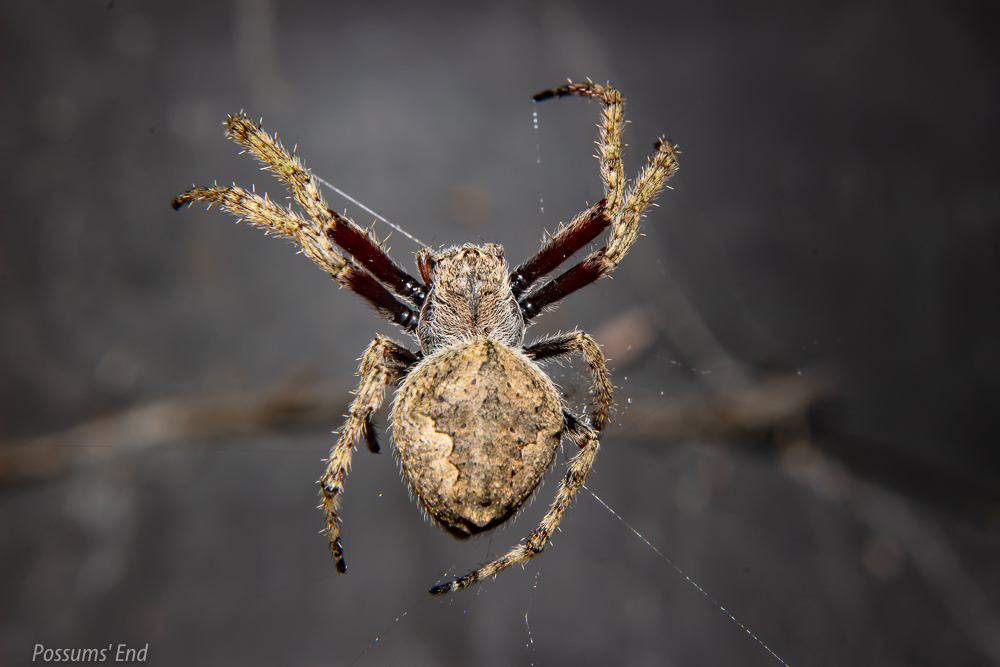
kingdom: Animalia
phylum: Arthropoda
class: Arachnida
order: Araneae
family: Araneidae
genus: Eriophora
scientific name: Eriophora pustulosa
